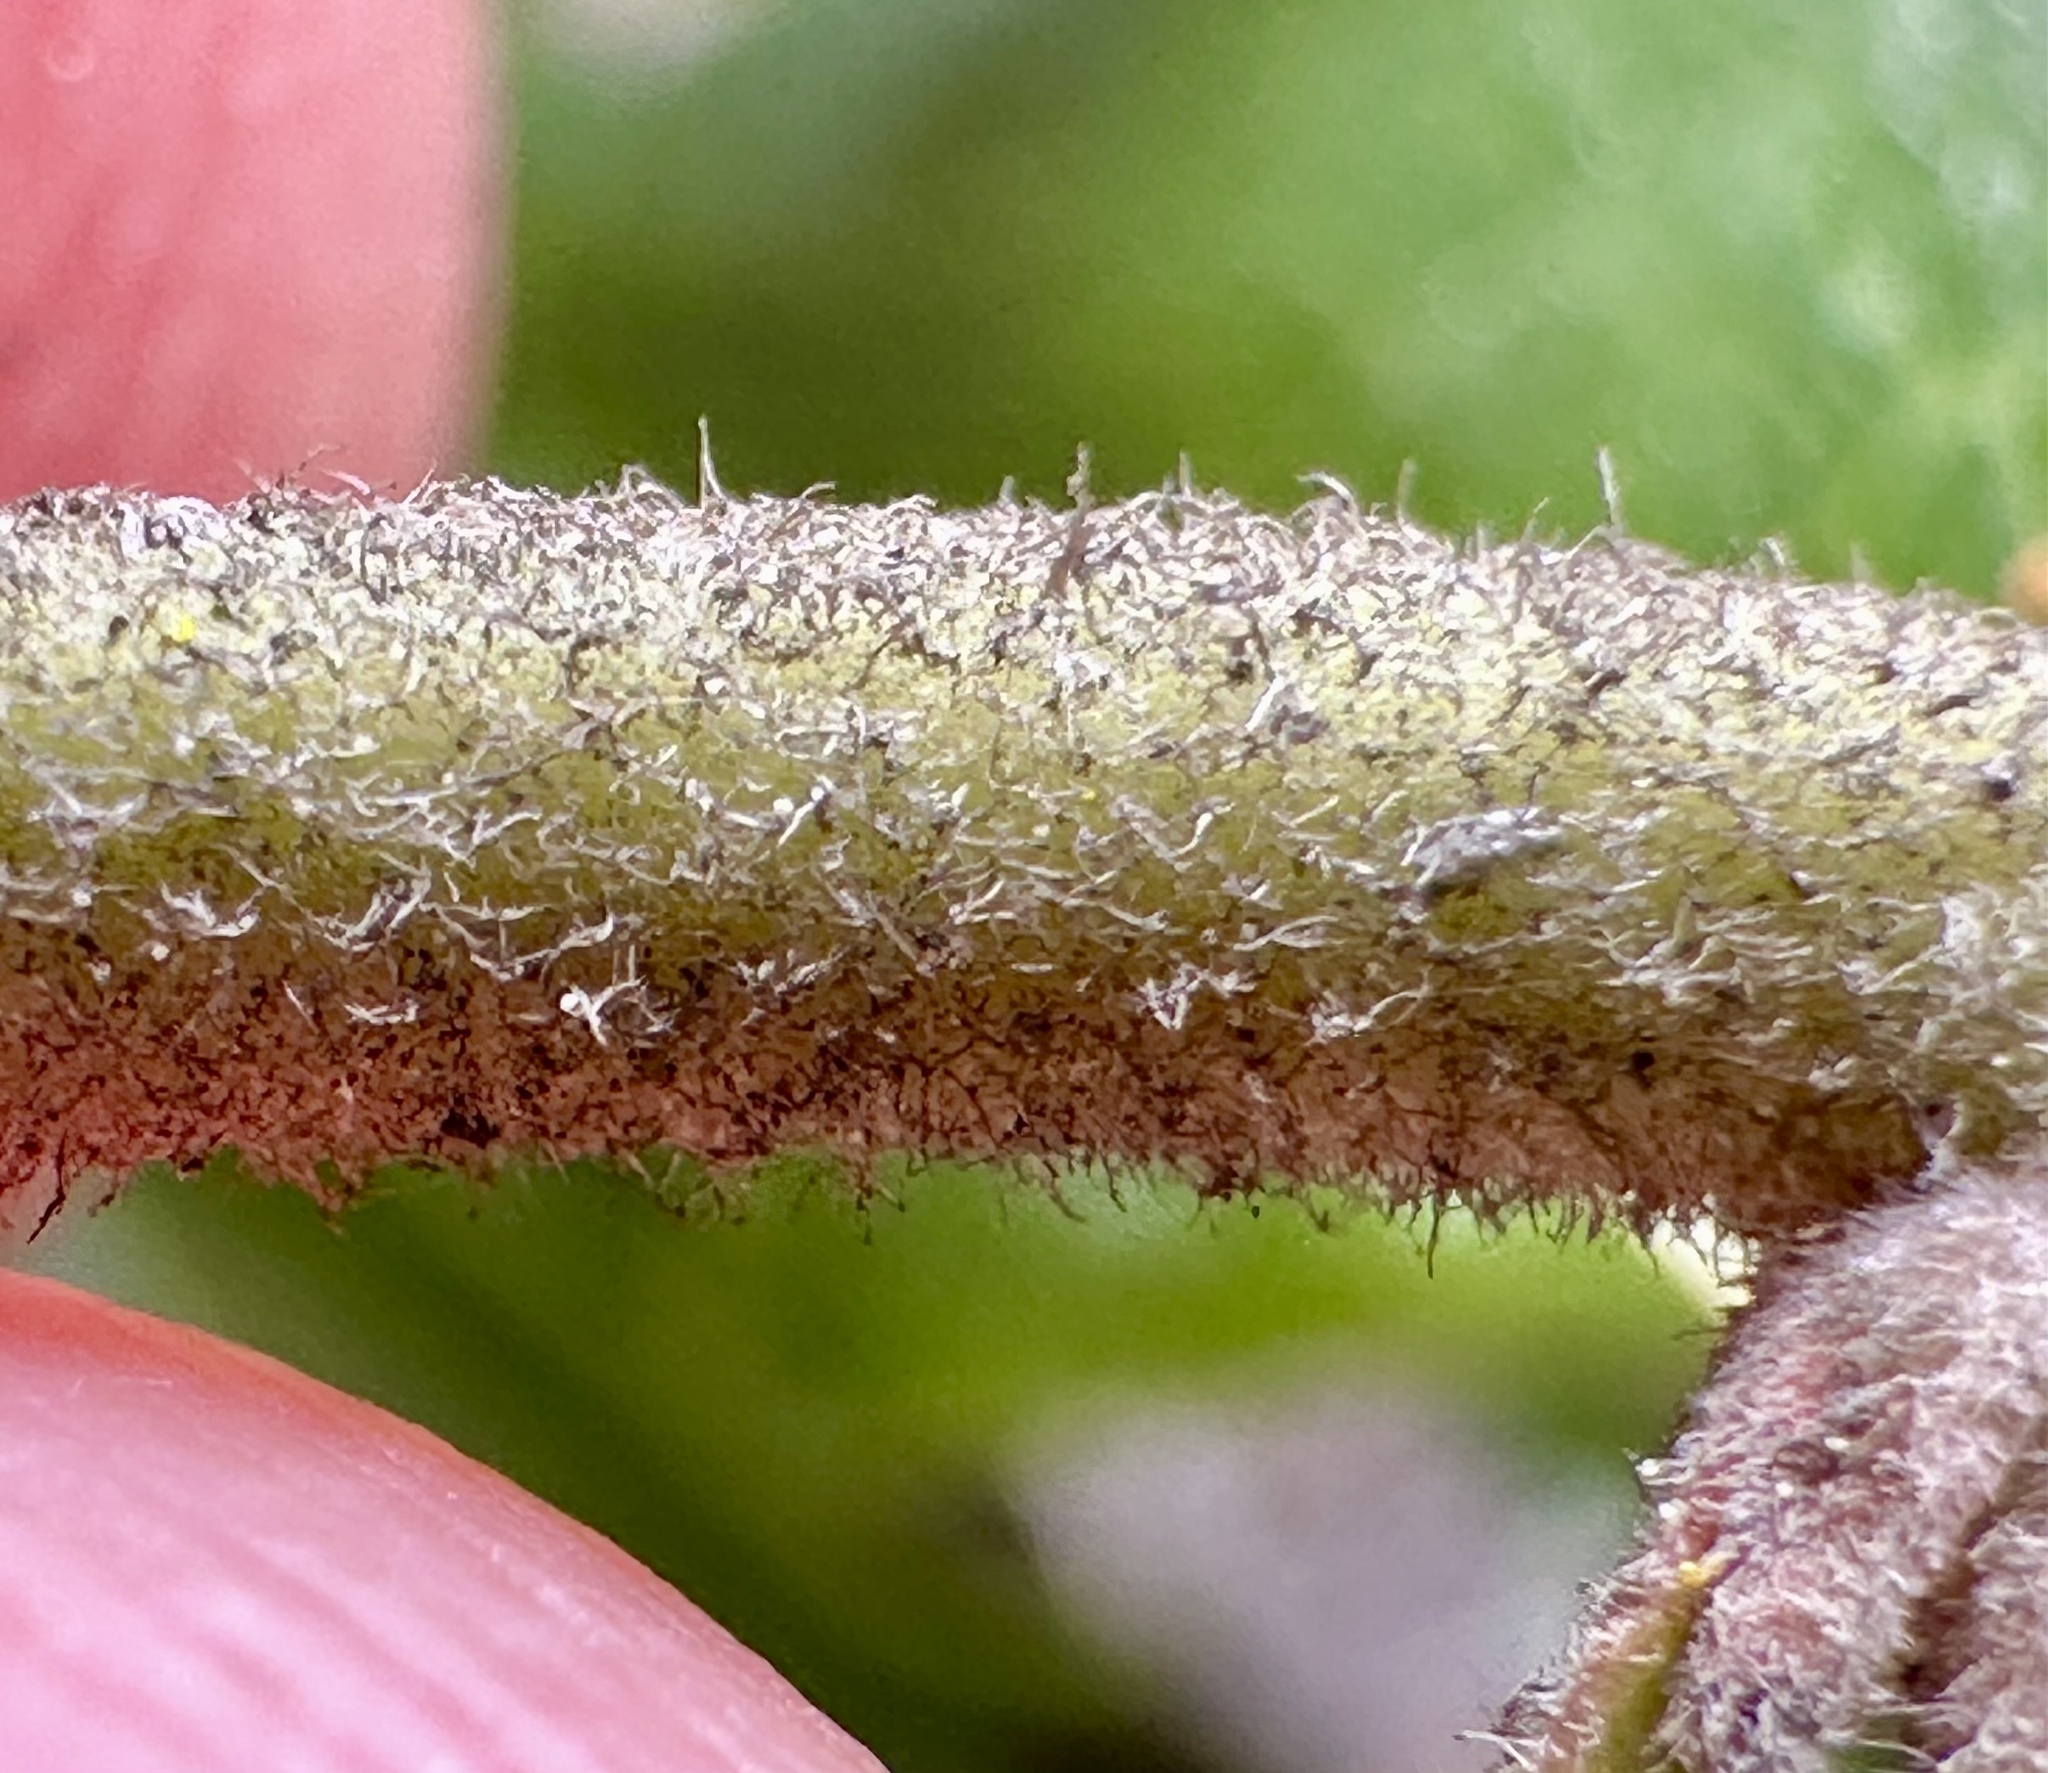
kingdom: Plantae
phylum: Tracheophyta
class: Magnoliopsida
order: Ericales
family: Ericaceae
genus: Arctostaphylos
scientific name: Arctostaphylos tomentosa
